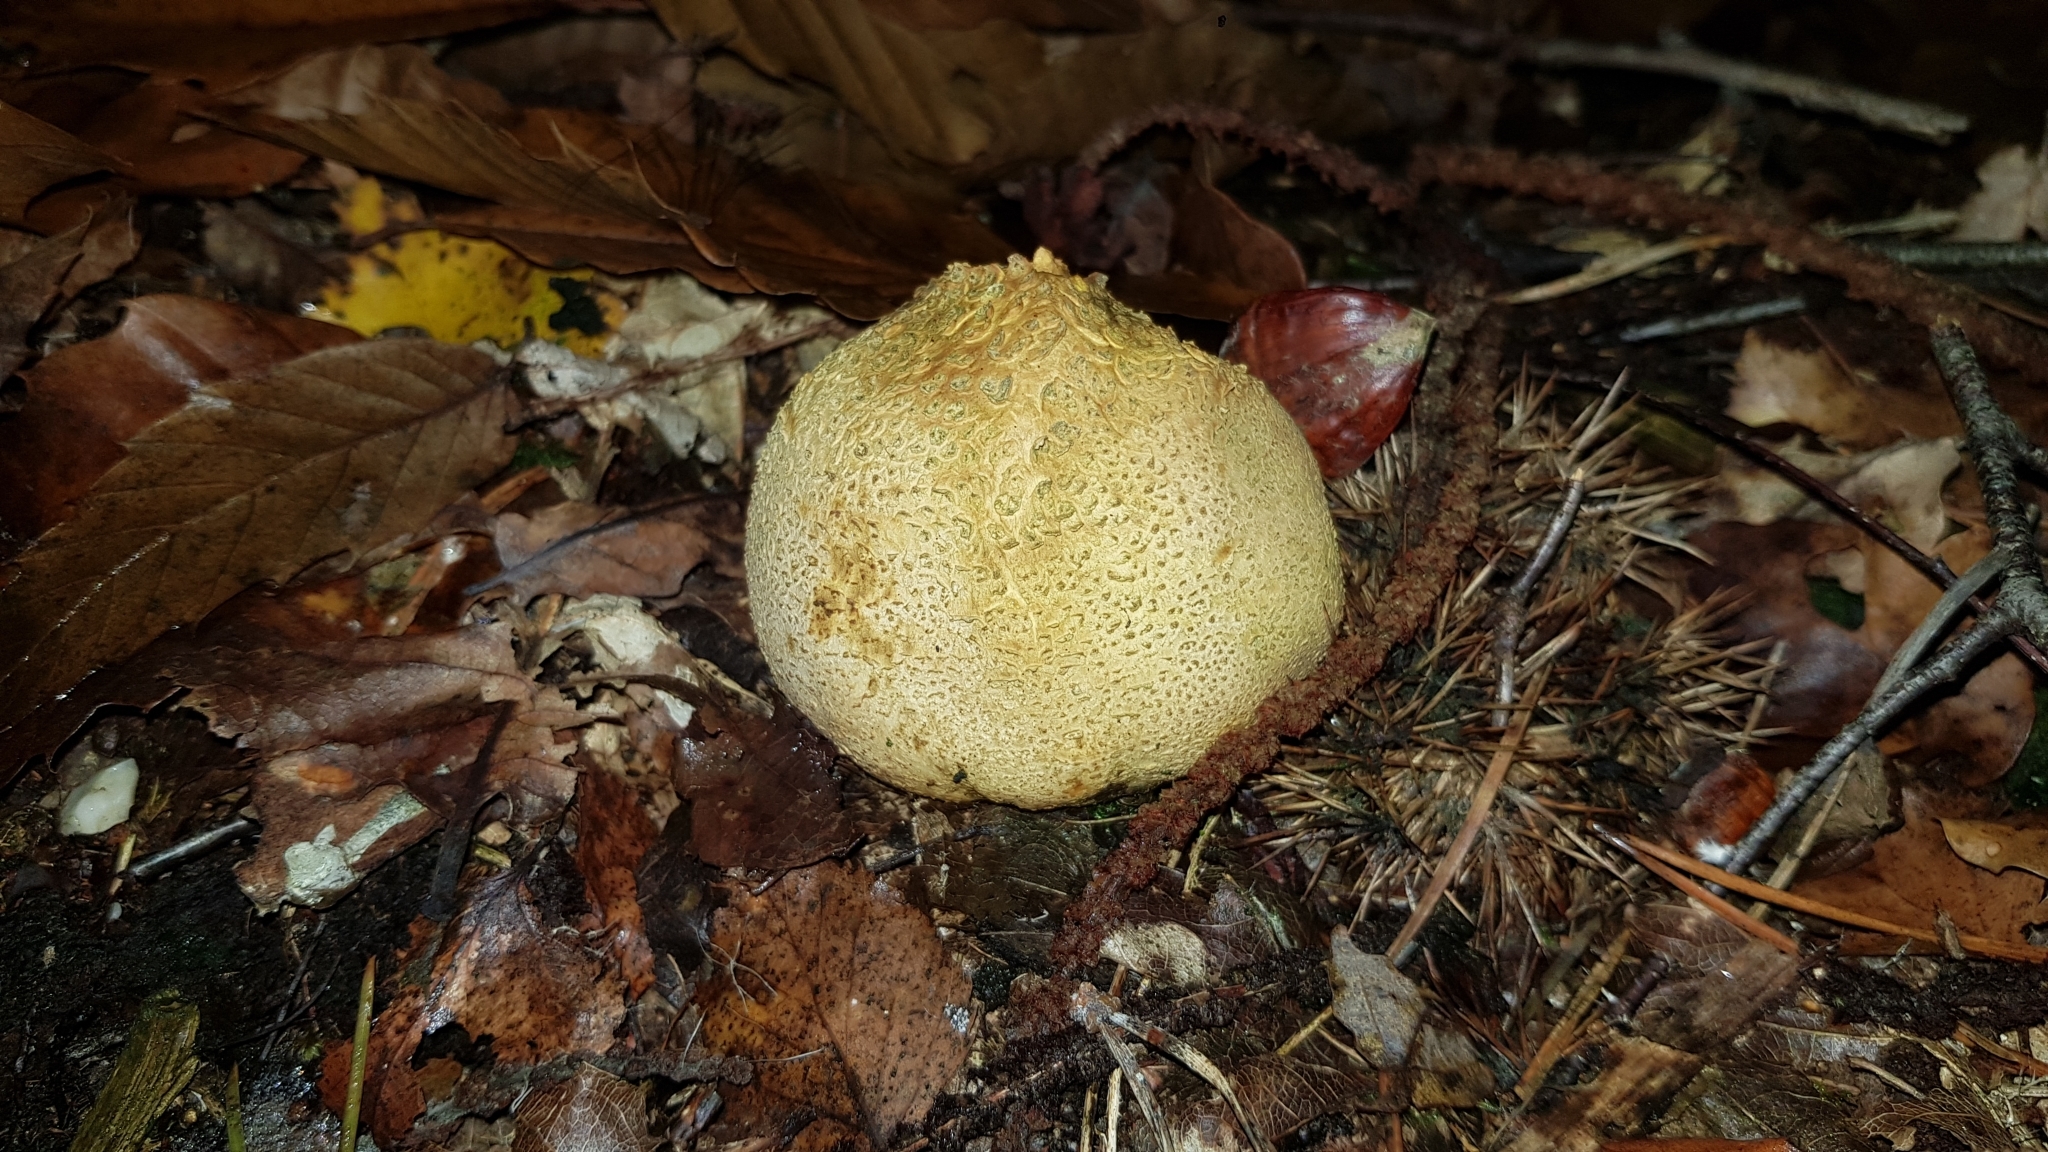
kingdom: Fungi
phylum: Basidiomycota
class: Agaricomycetes
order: Boletales
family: Sclerodermataceae
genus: Scleroderma
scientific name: Scleroderma citrinum
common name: Common earthball
